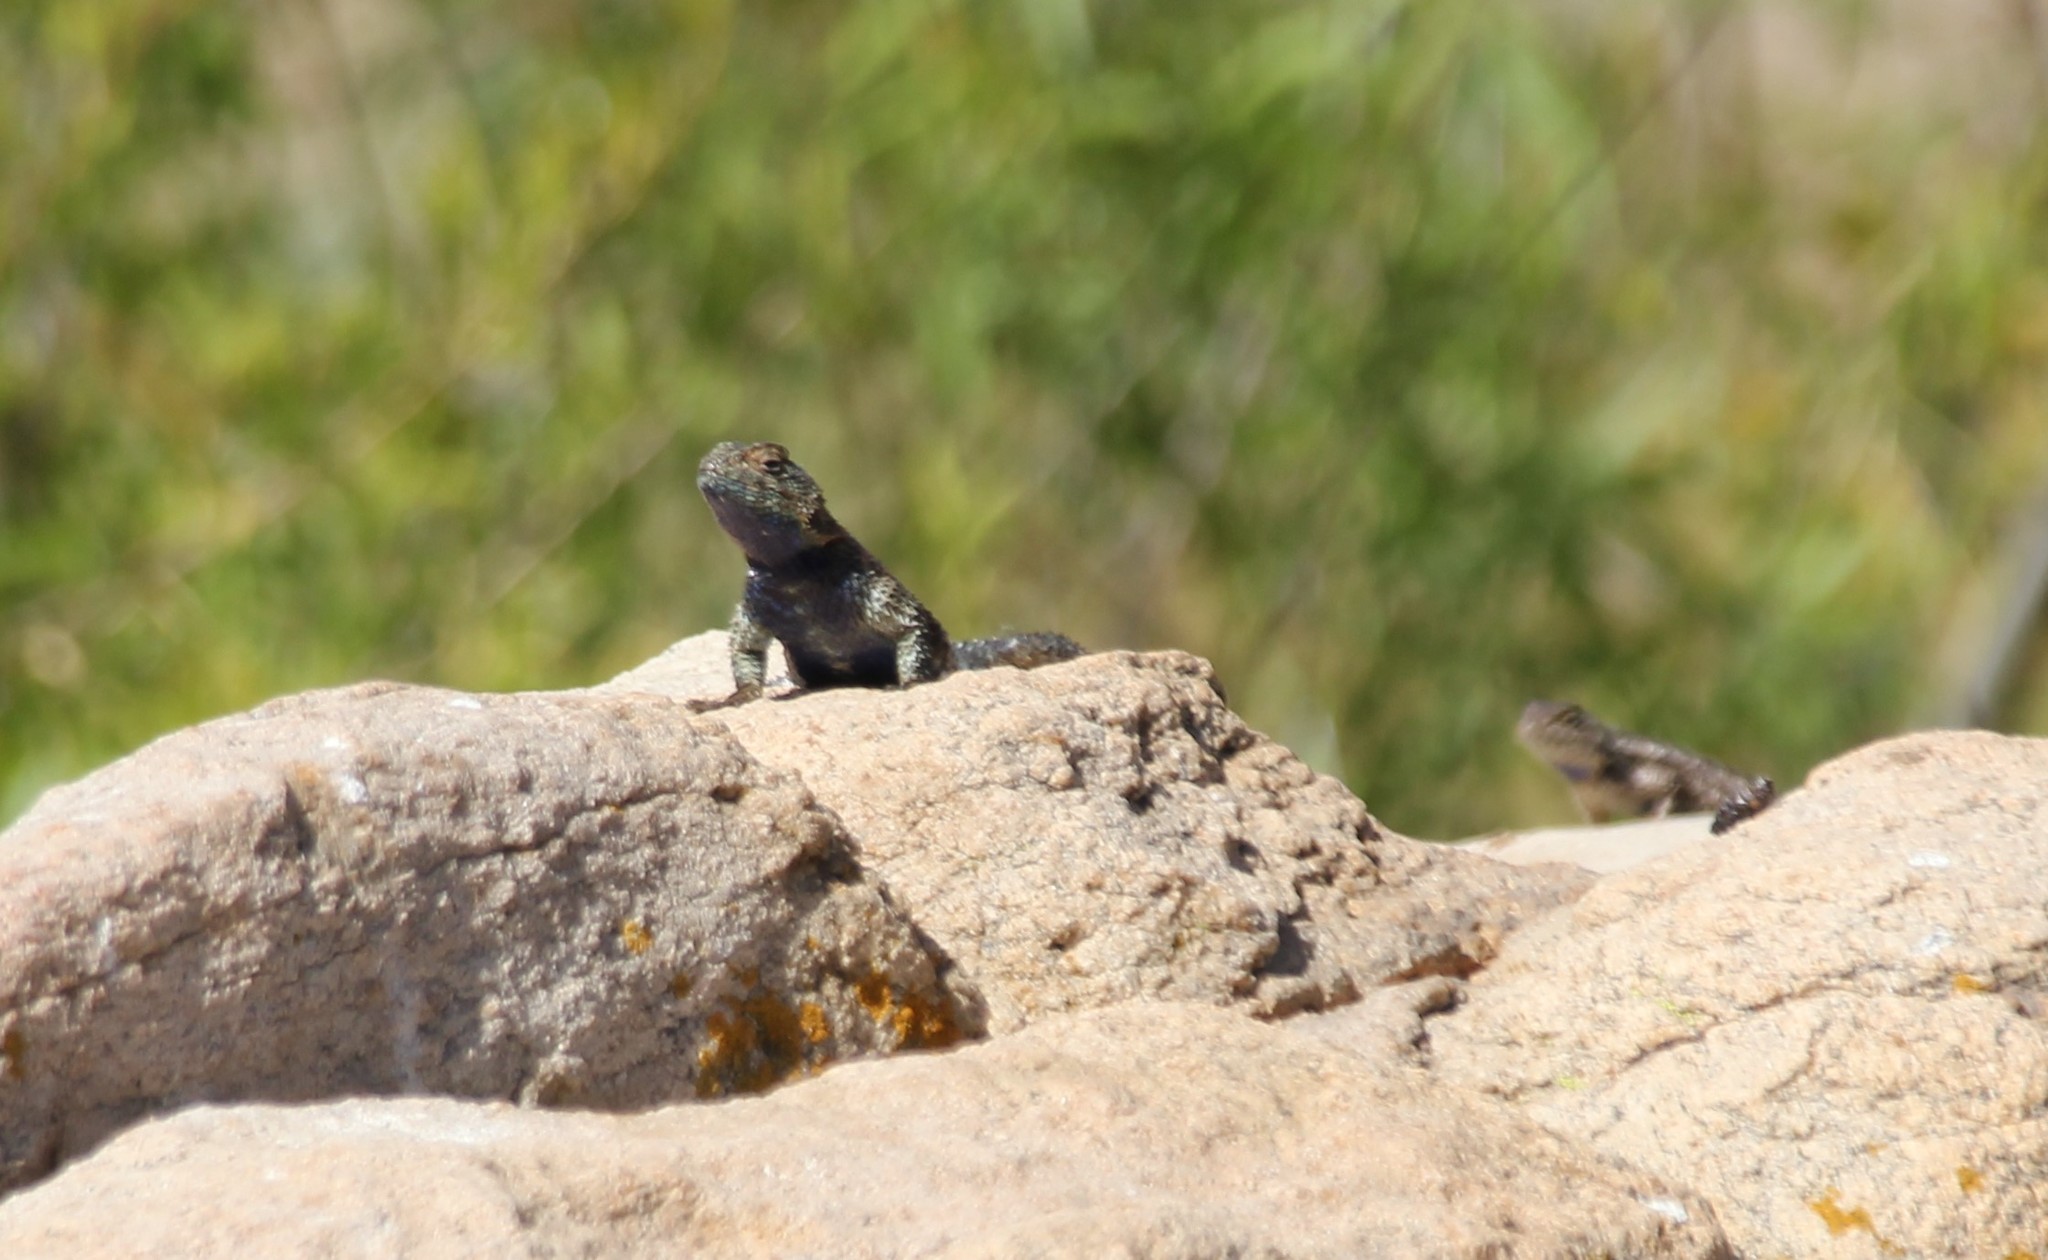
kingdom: Animalia
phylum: Chordata
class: Squamata
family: Phrynosomatidae
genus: Sceloporus
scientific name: Sceloporus orcutti
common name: Granite spiny lizard
